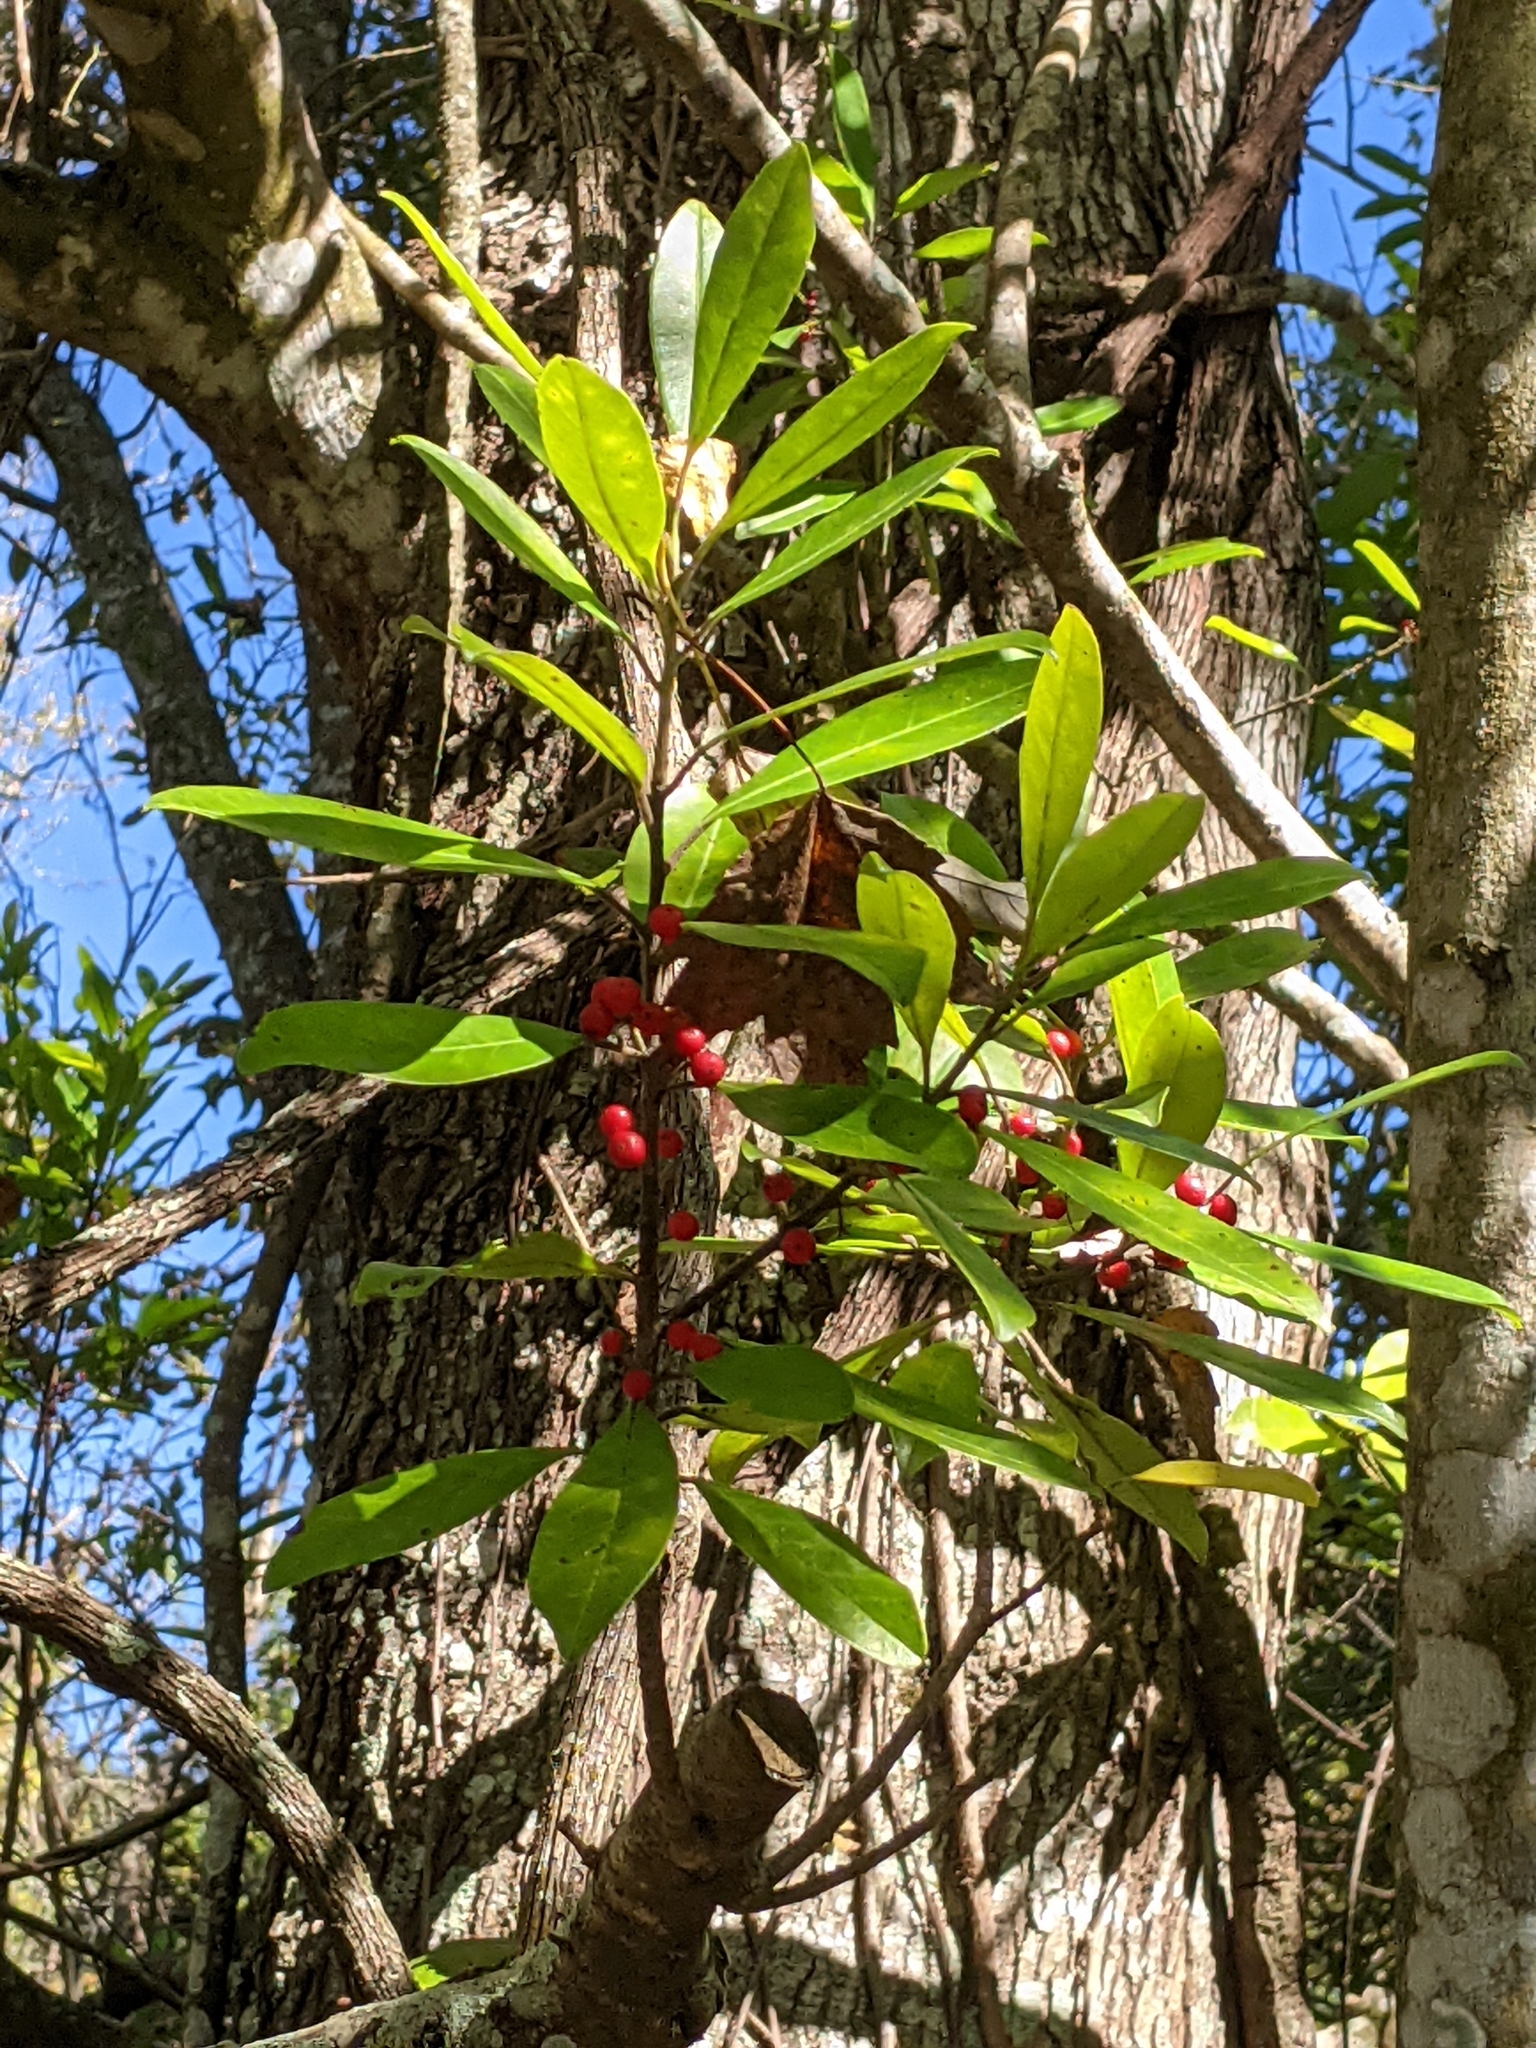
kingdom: Plantae
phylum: Tracheophyta
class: Magnoliopsida
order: Aquifoliales
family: Aquifoliaceae
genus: Ilex
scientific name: Ilex cassine
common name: Dahoon
